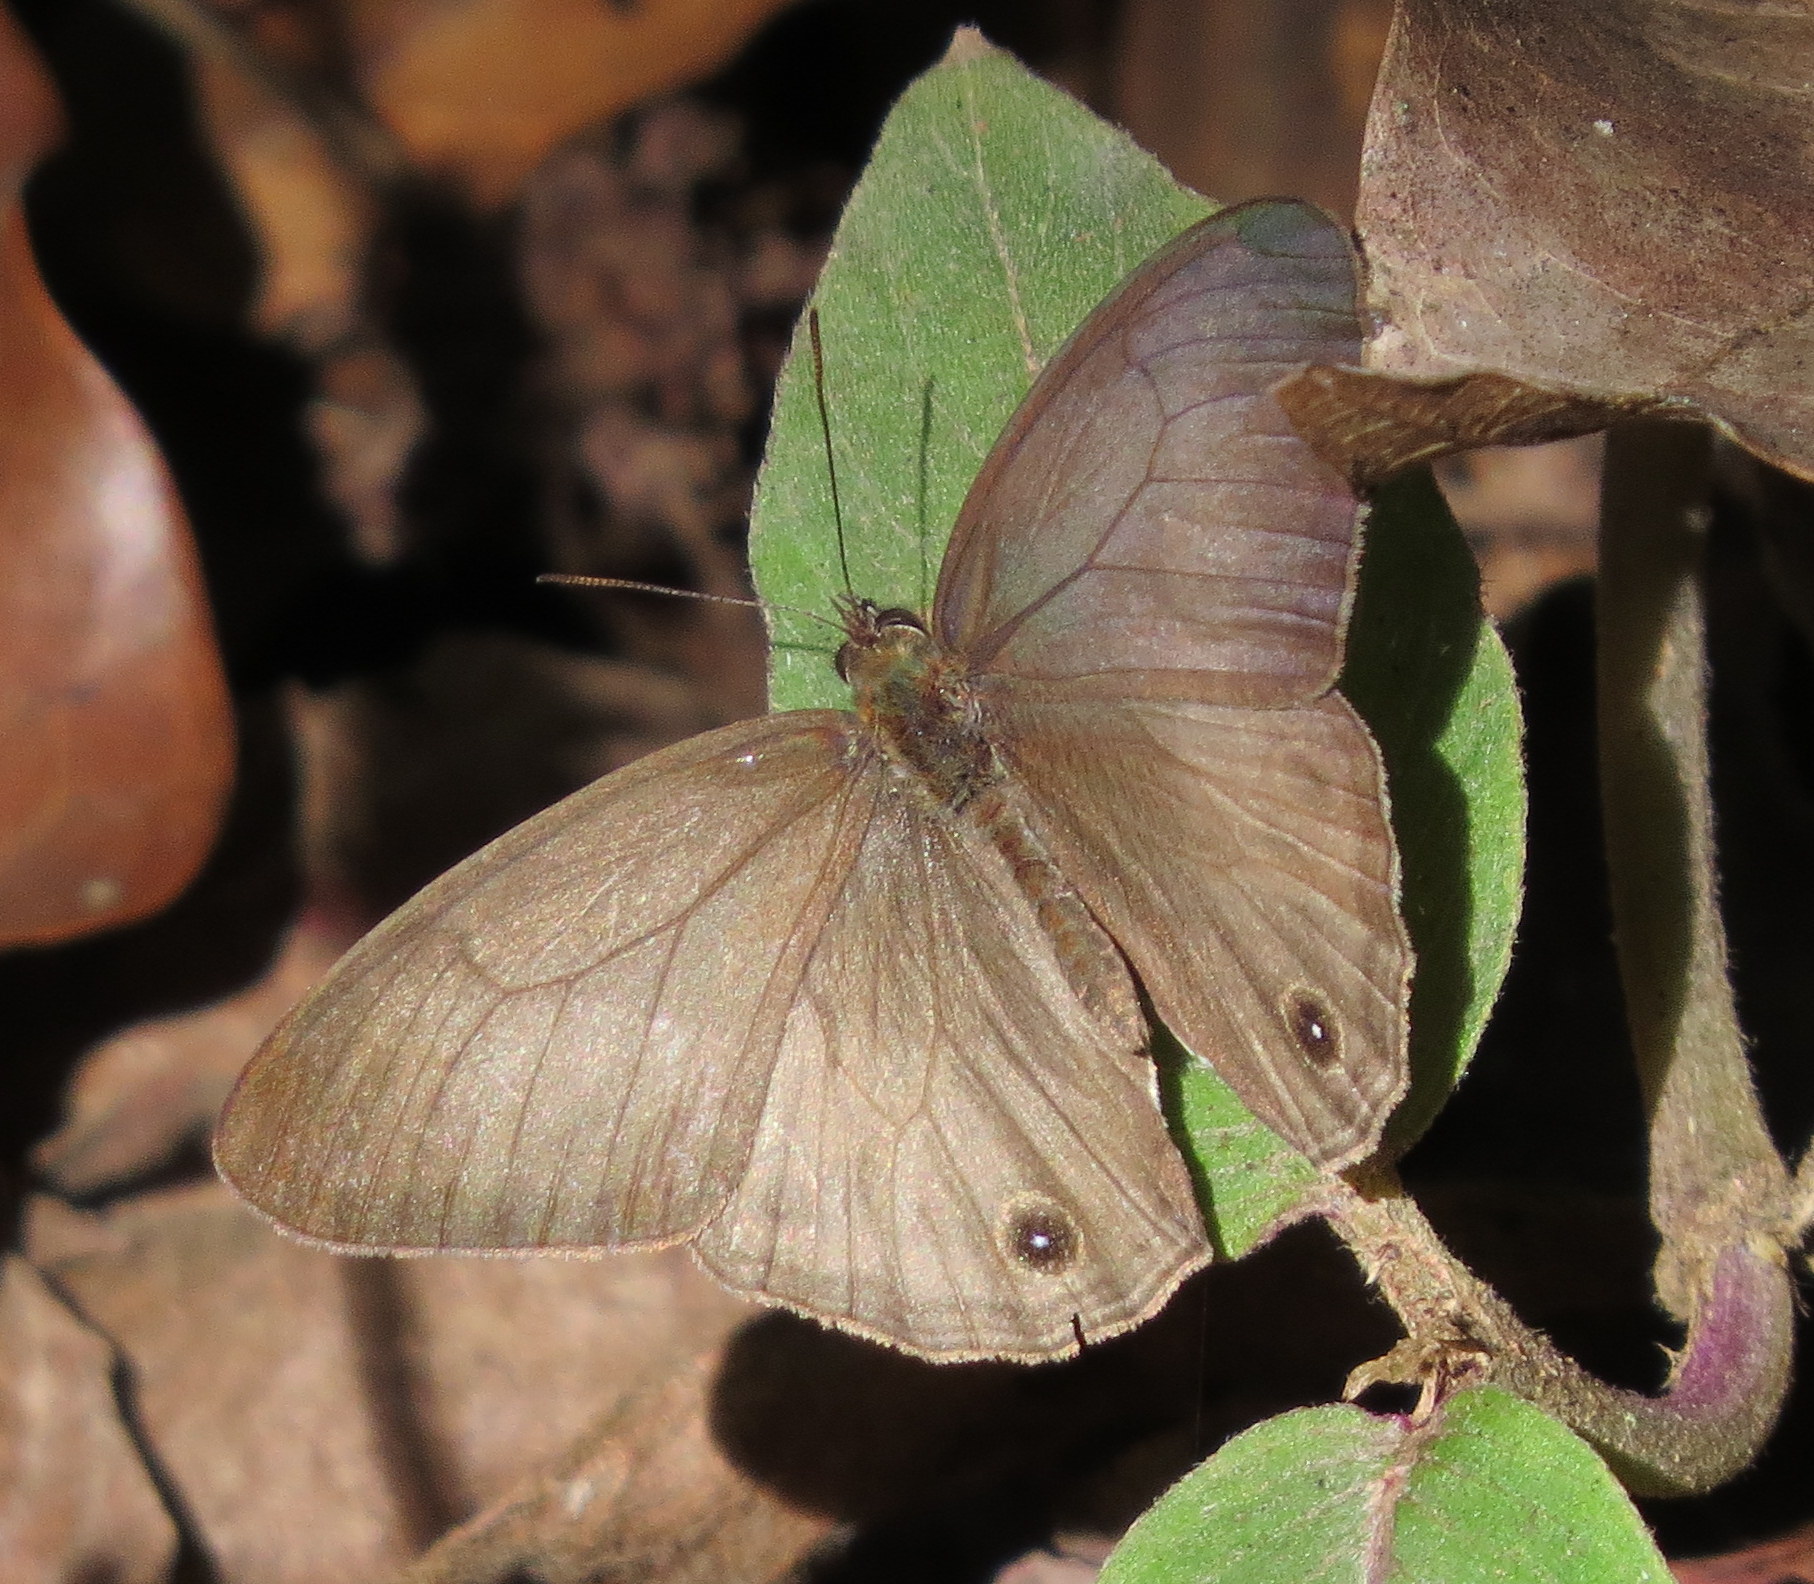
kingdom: Animalia
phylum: Arthropoda
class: Insecta
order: Lepidoptera
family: Nymphalidae
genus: Vareuptychia
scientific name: Vareuptychia similis
